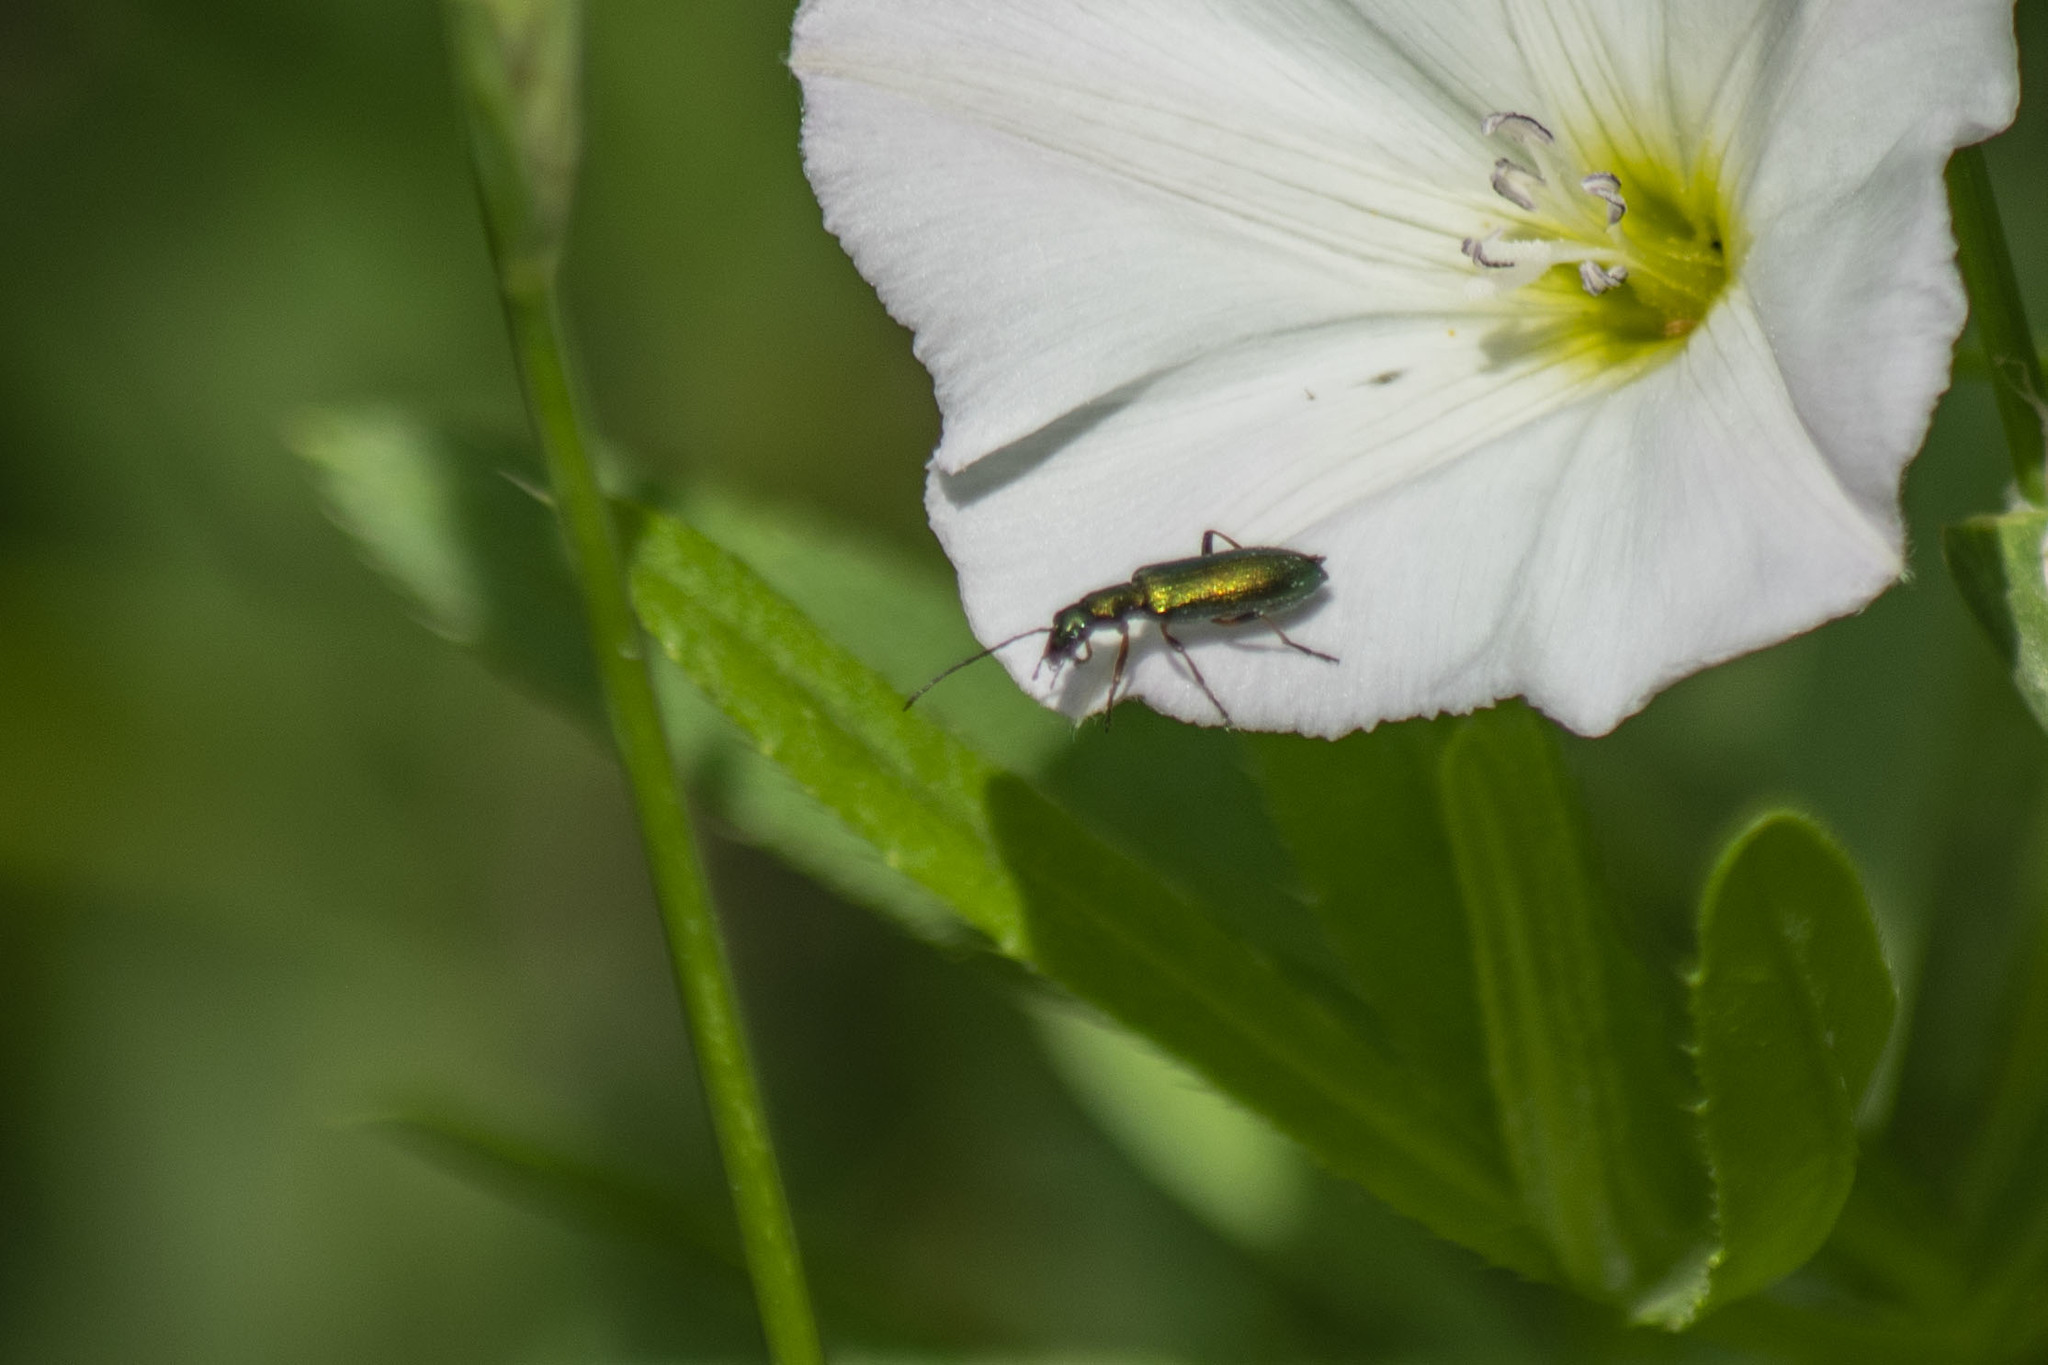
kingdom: Animalia
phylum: Arthropoda
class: Insecta
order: Coleoptera
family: Oedemeridae
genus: Chrysanthia
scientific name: Chrysanthia geniculata
